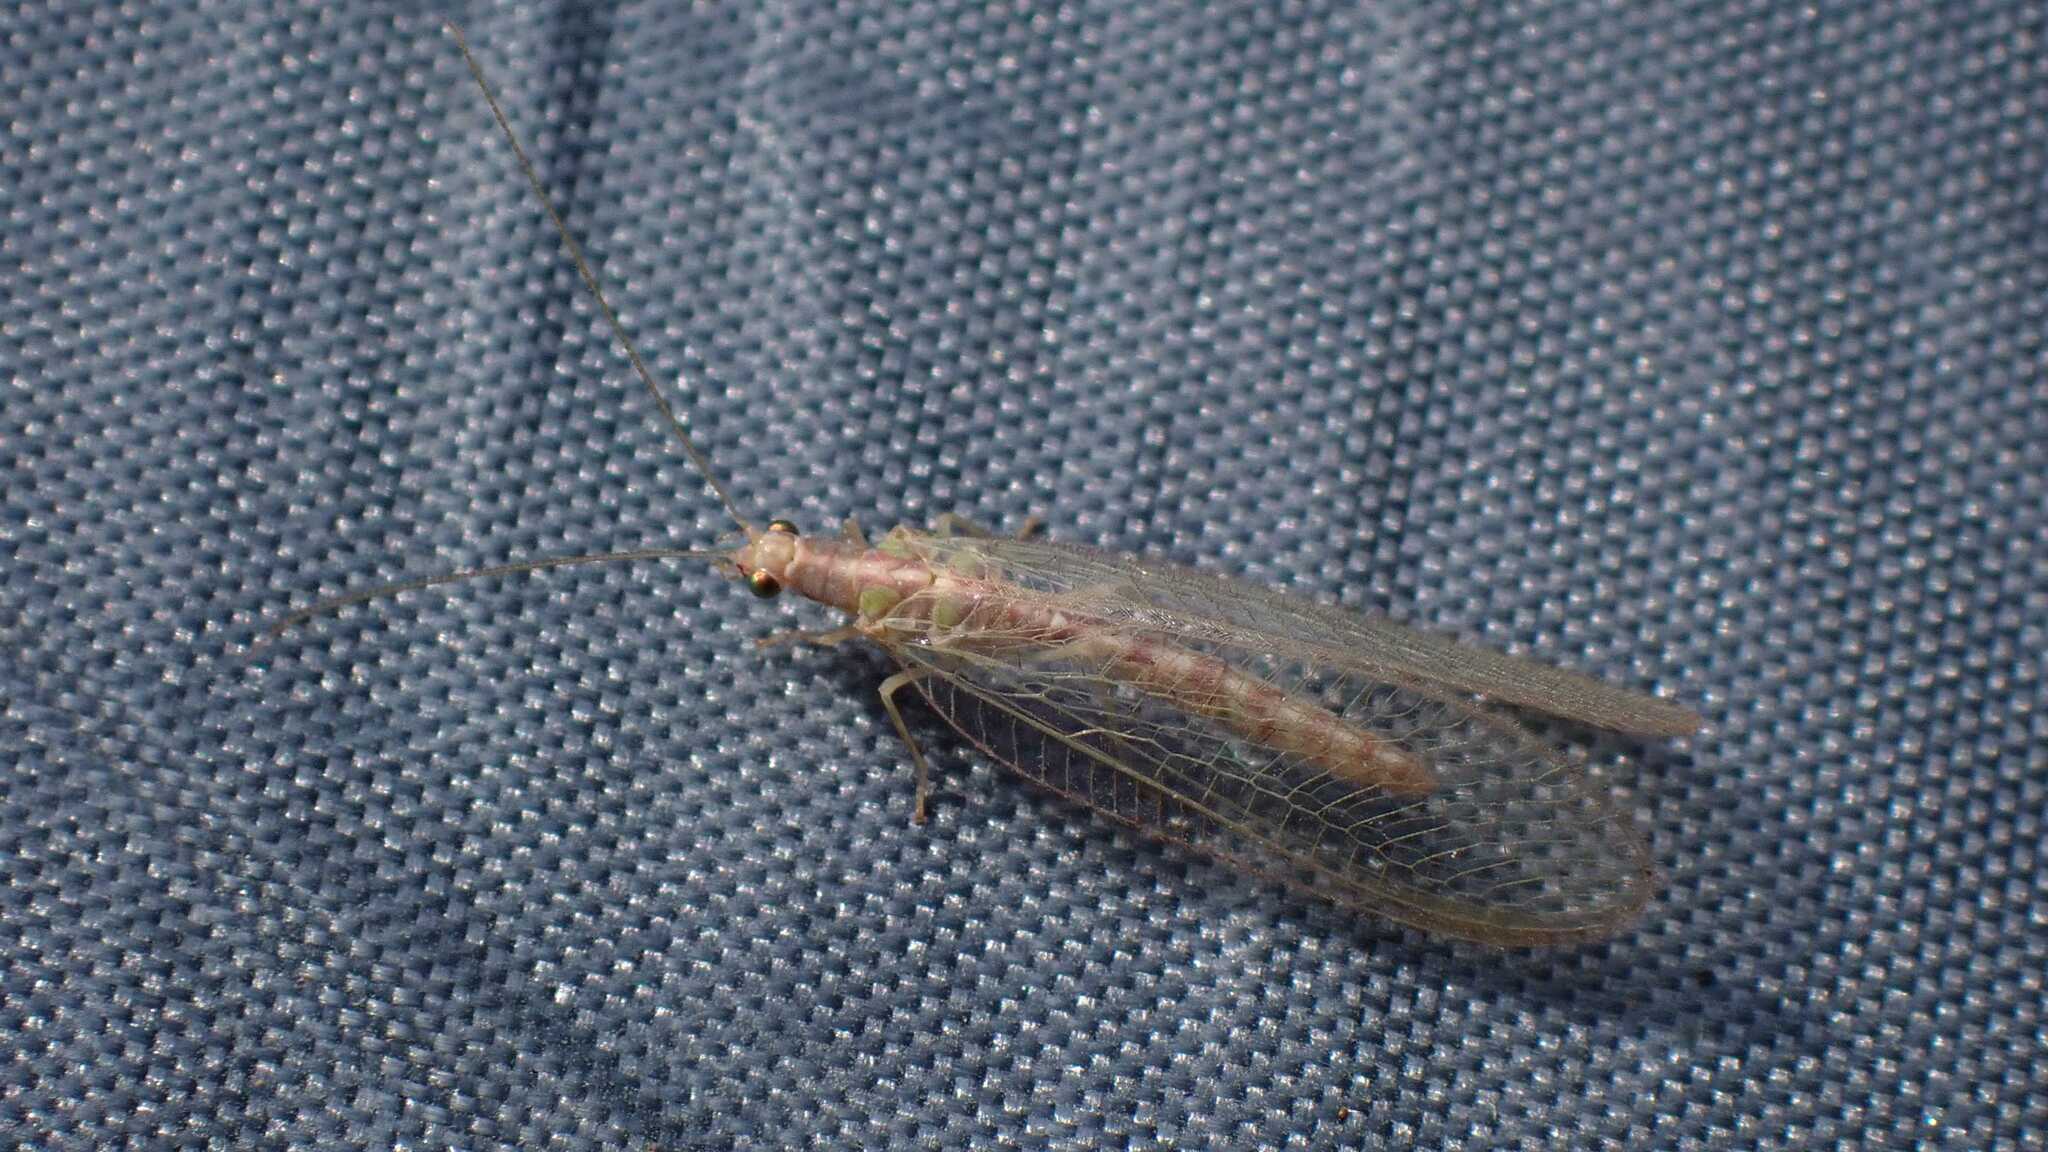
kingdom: Animalia
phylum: Arthropoda
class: Insecta
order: Neuroptera
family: Chrysopidae
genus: Chrysoperla
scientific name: Chrysoperla
